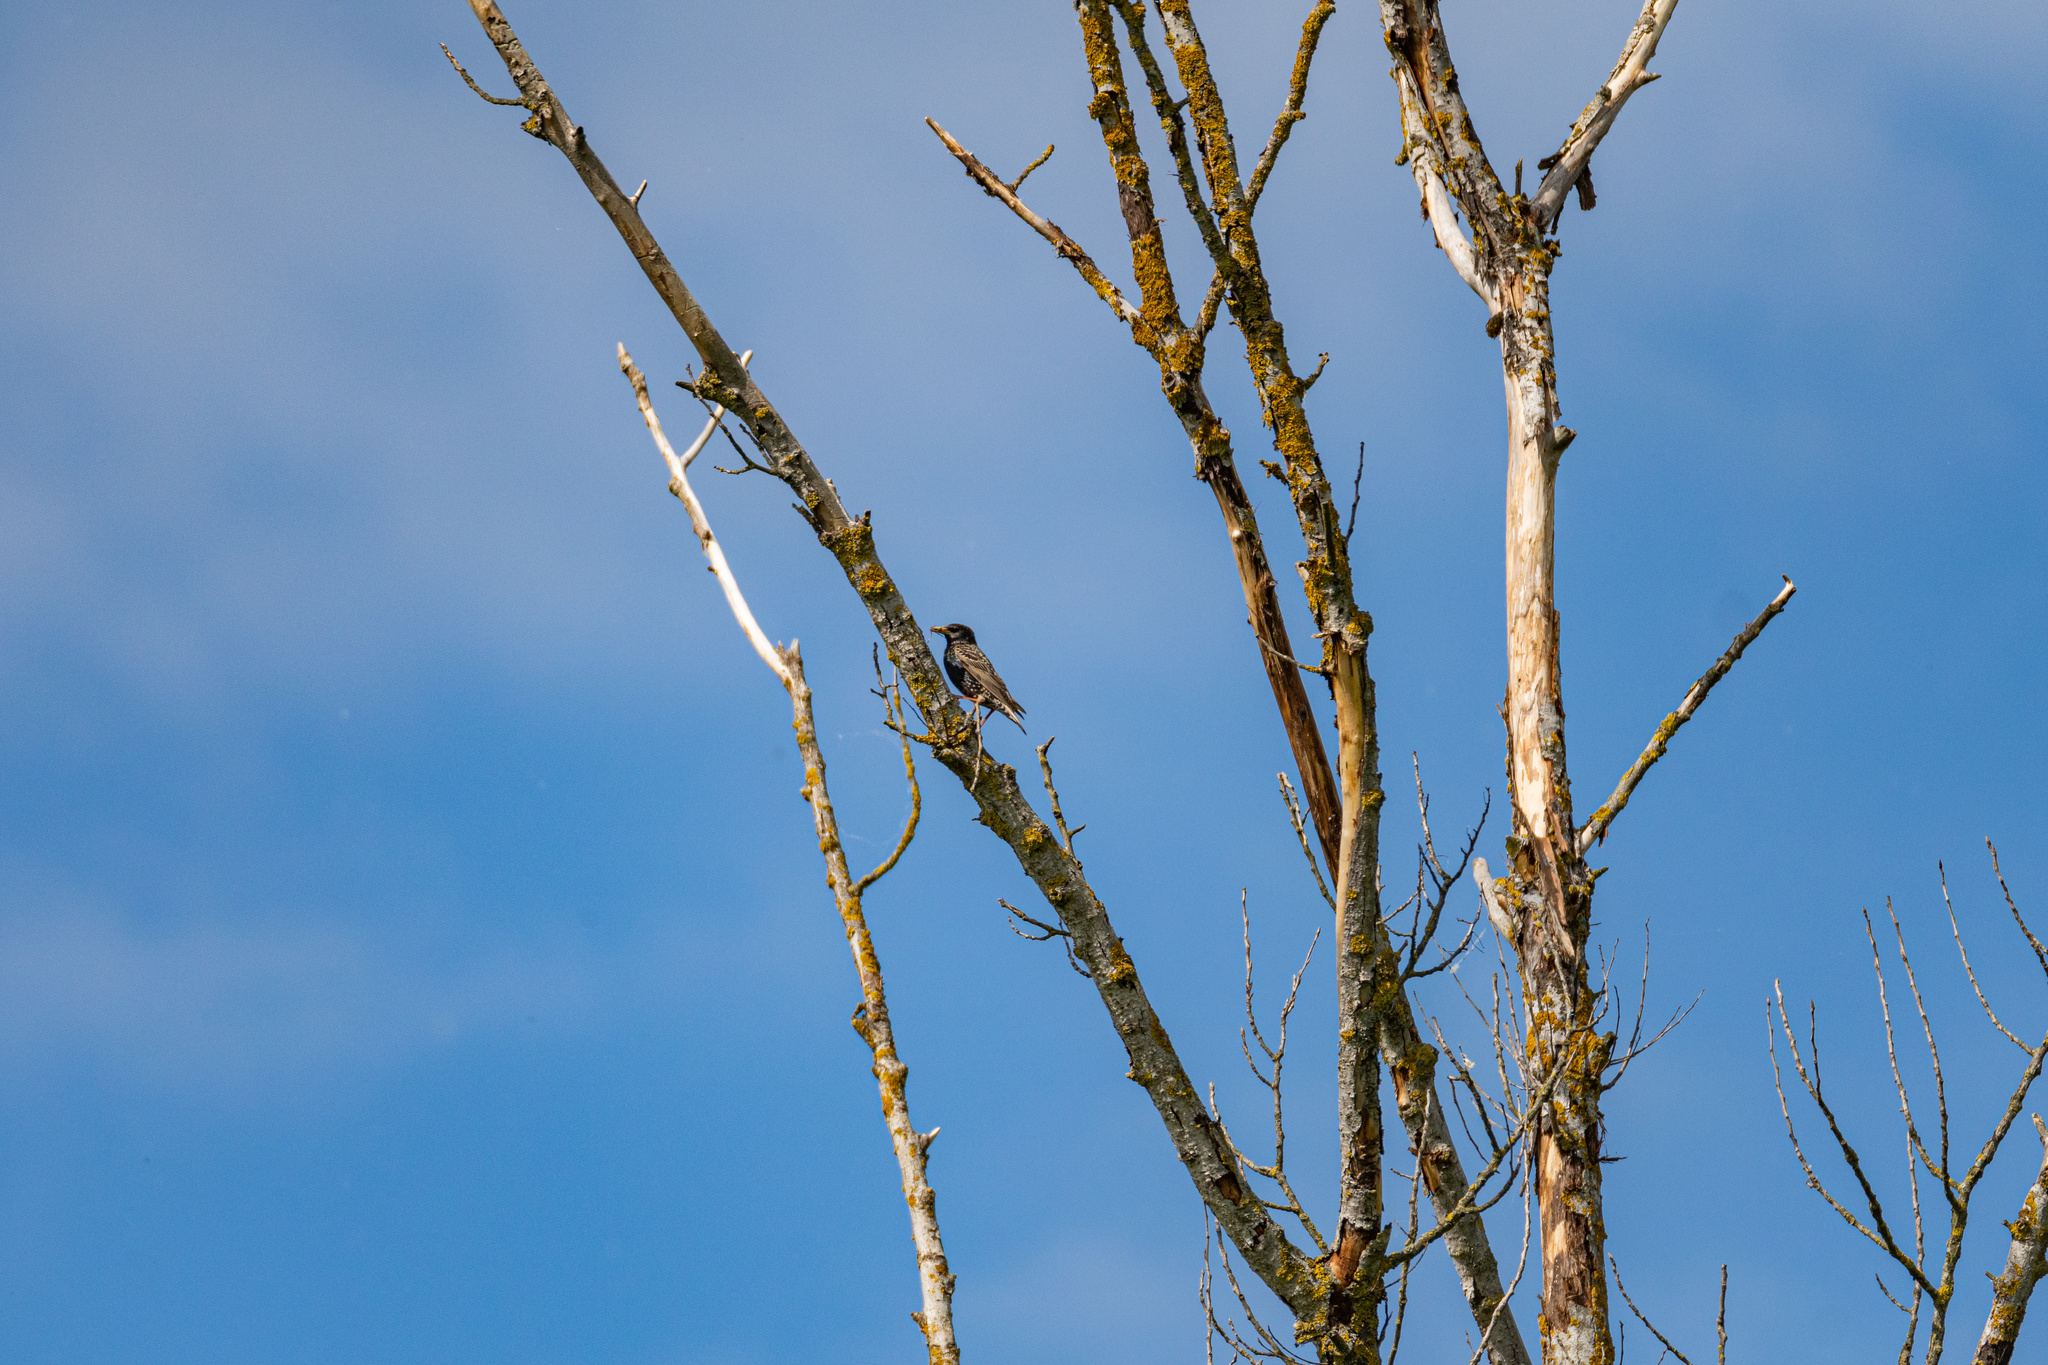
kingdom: Animalia
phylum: Chordata
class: Aves
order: Passeriformes
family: Sturnidae
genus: Sturnus
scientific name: Sturnus vulgaris
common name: Common starling
